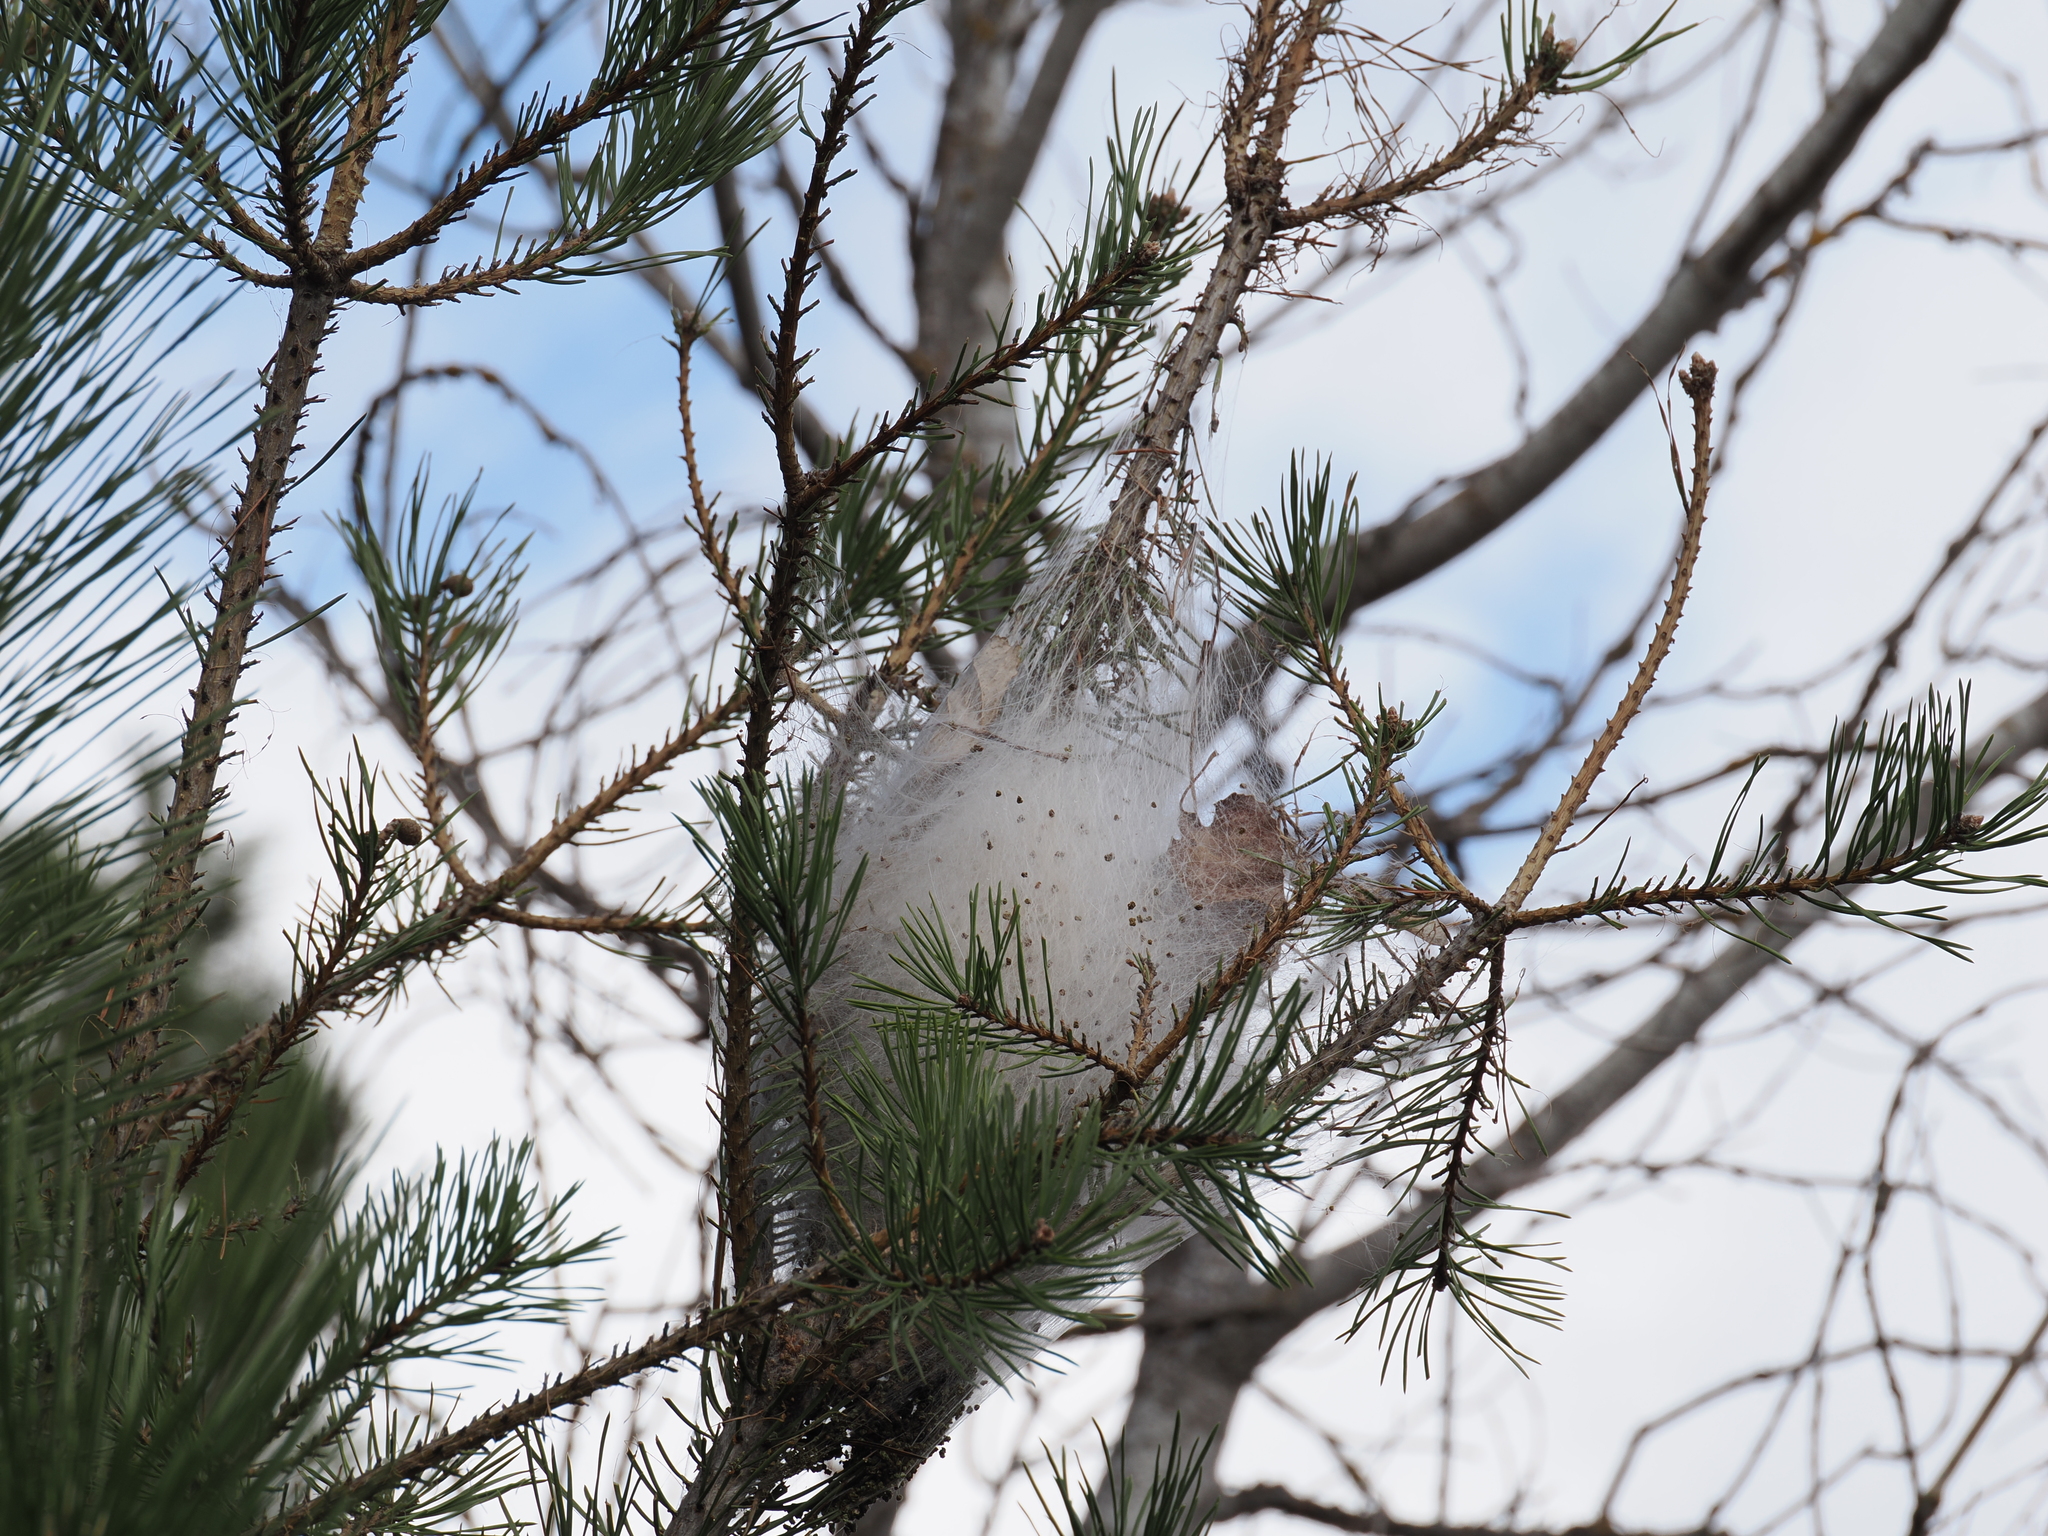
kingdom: Animalia
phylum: Arthropoda
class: Insecta
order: Lepidoptera
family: Notodontidae
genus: Thaumetopoea
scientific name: Thaumetopoea pityocampa
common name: Pine processionary
